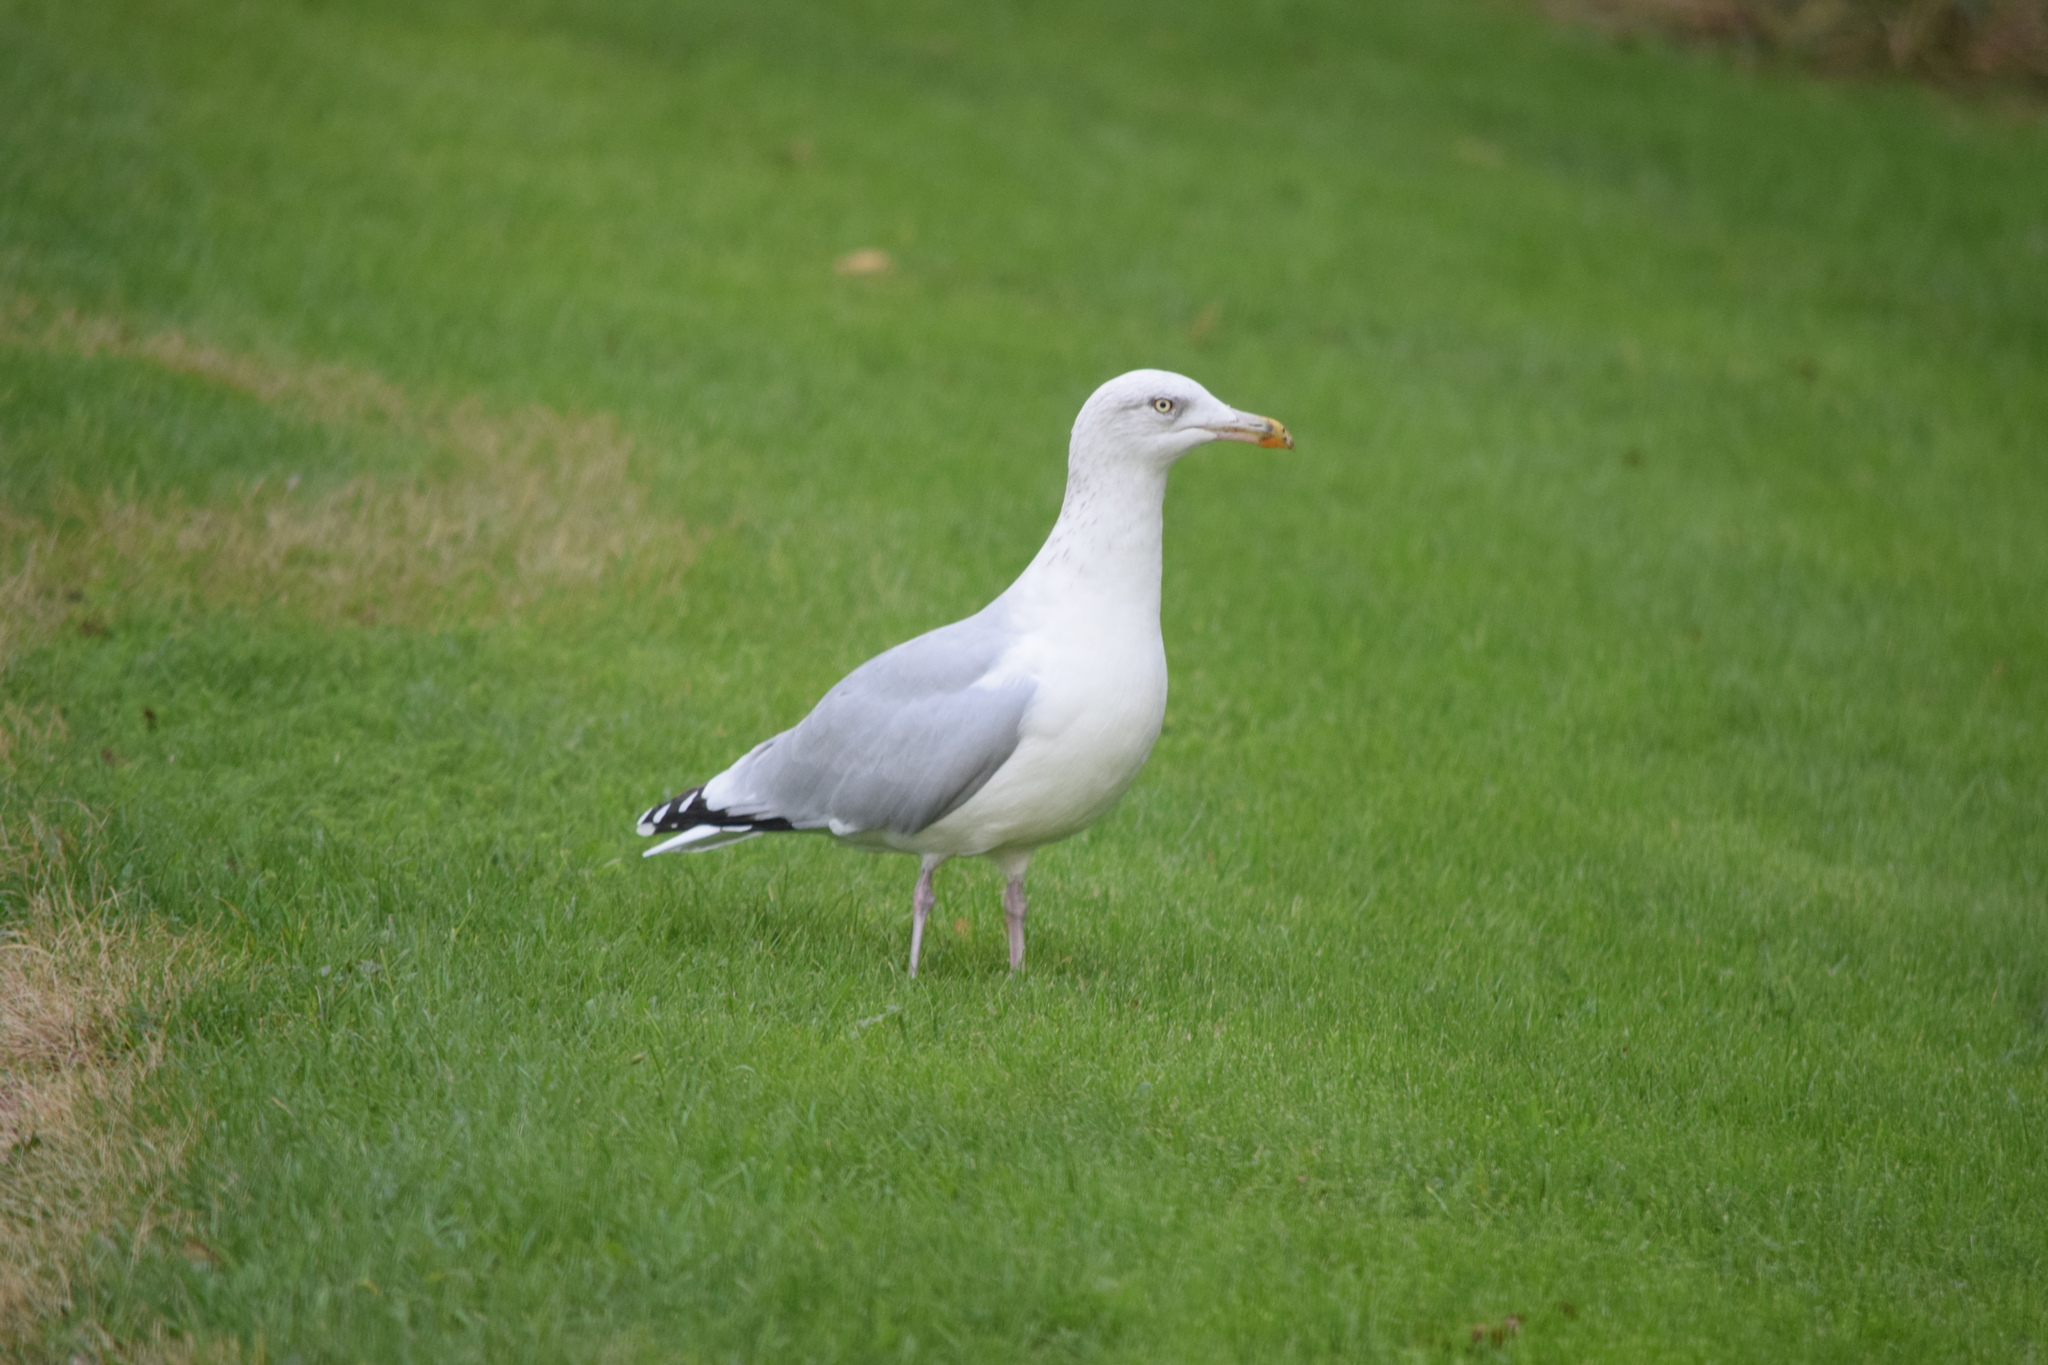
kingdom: Animalia
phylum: Chordata
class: Aves
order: Charadriiformes
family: Laridae
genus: Larus
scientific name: Larus argentatus
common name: Herring gull
